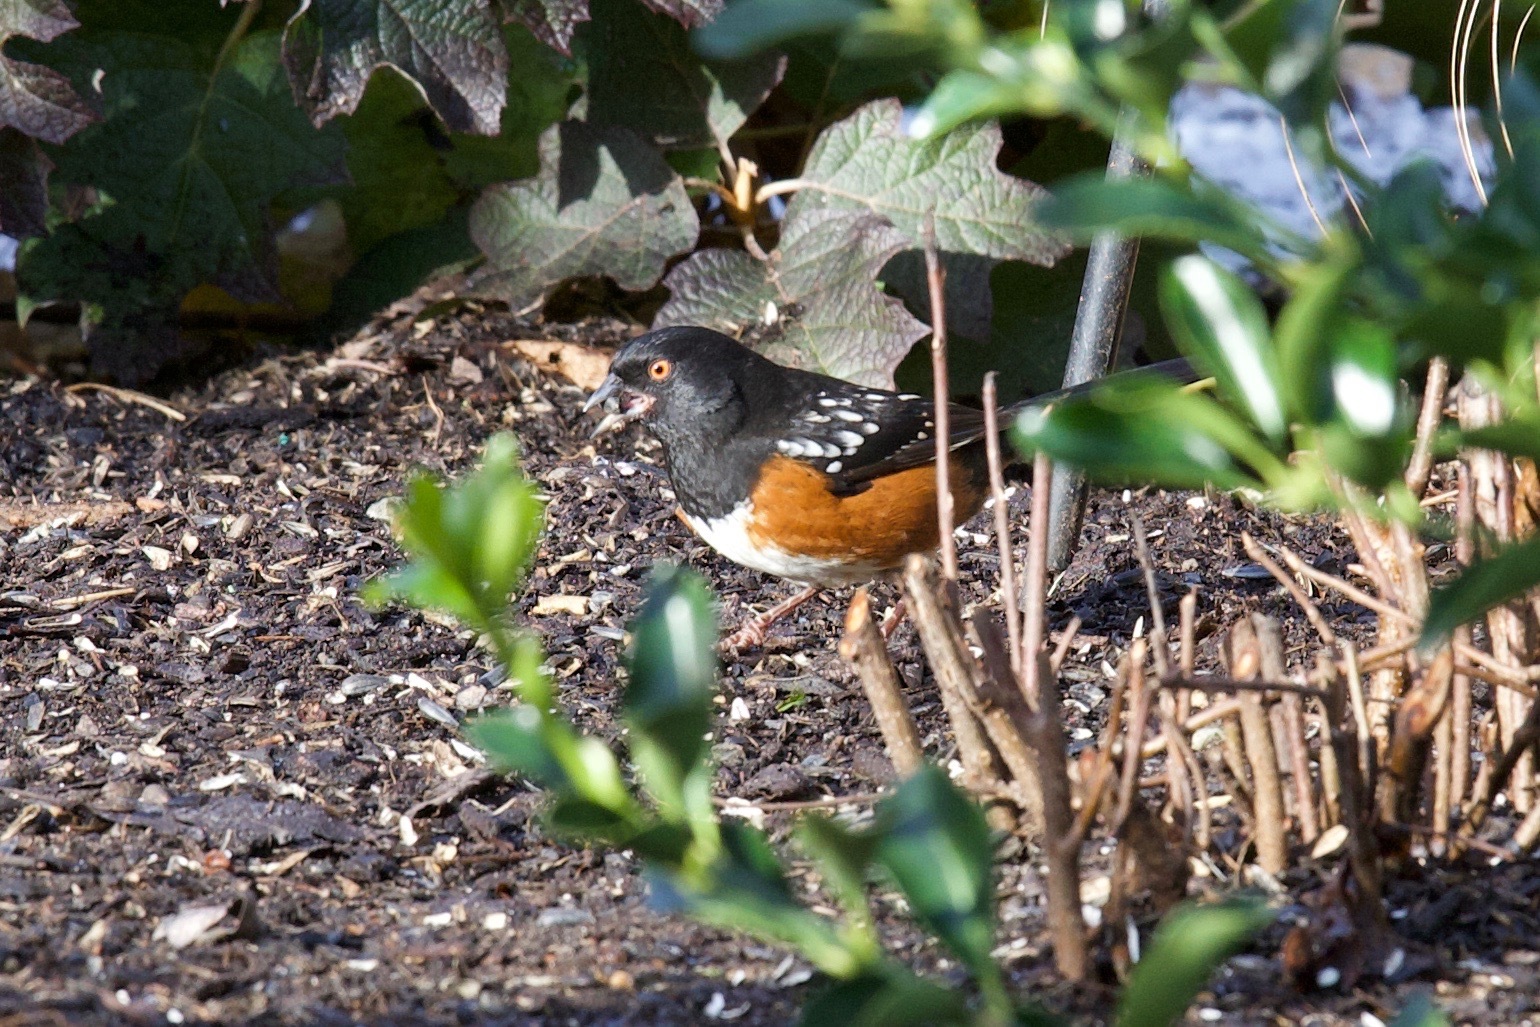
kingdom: Animalia
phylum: Chordata
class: Aves
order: Passeriformes
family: Passerellidae
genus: Pipilo
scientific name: Pipilo maculatus
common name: Spotted towhee
